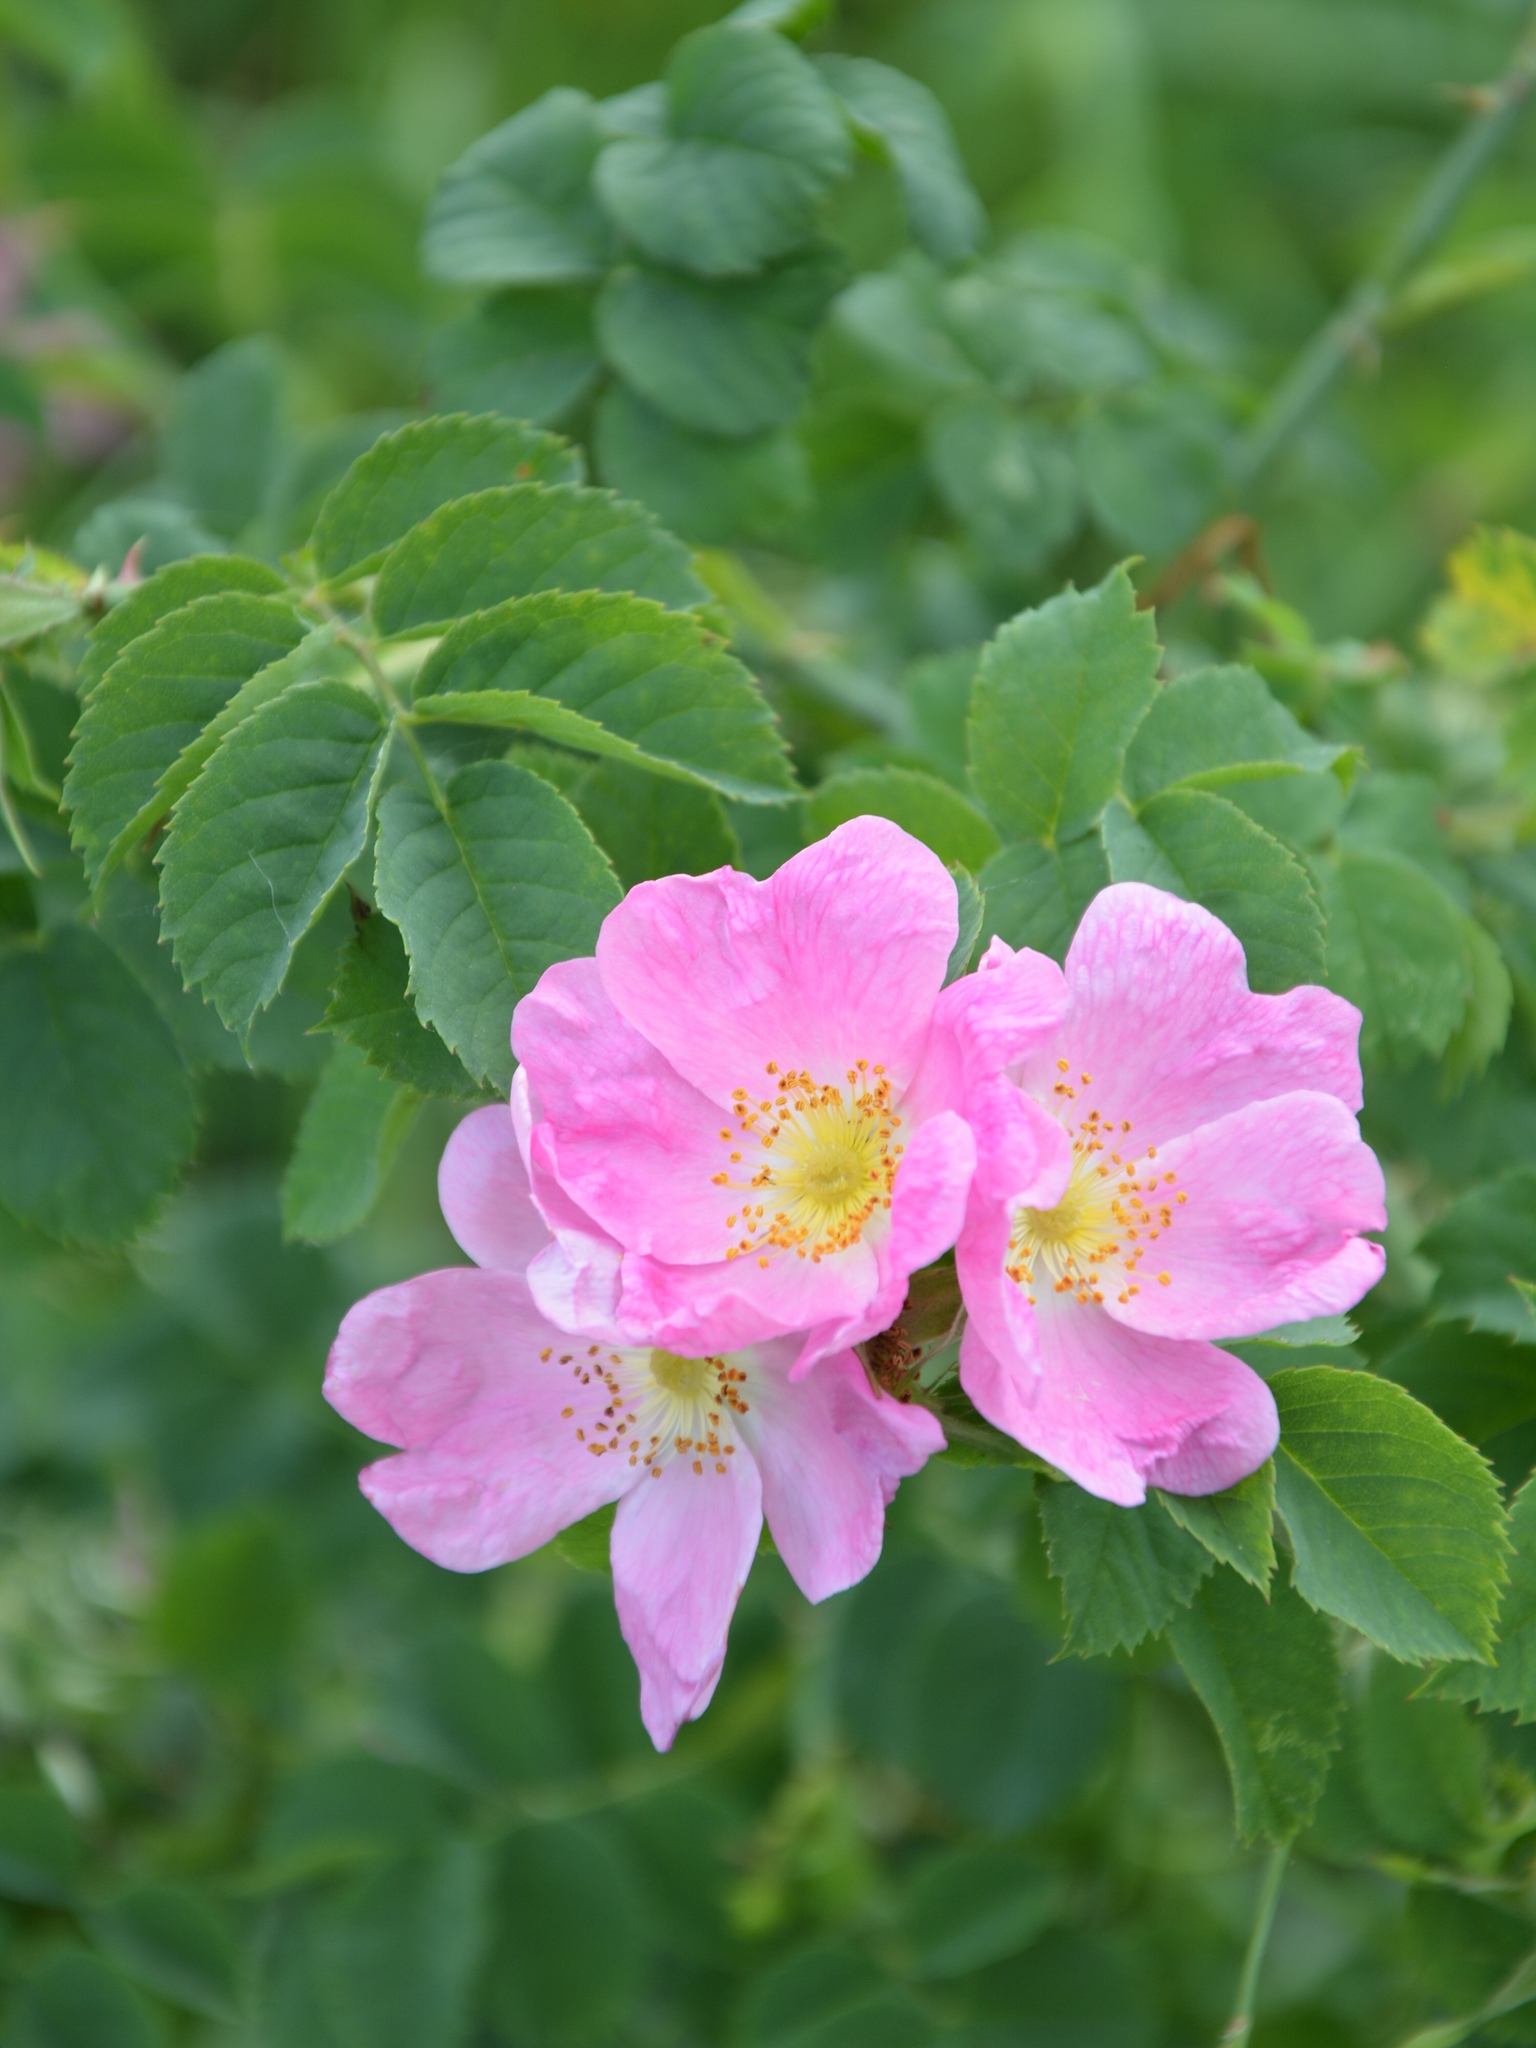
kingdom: Plantae
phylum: Tracheophyta
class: Magnoliopsida
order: Rosales
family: Rosaceae
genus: Rosa
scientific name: Rosa canina
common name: Dog rose
